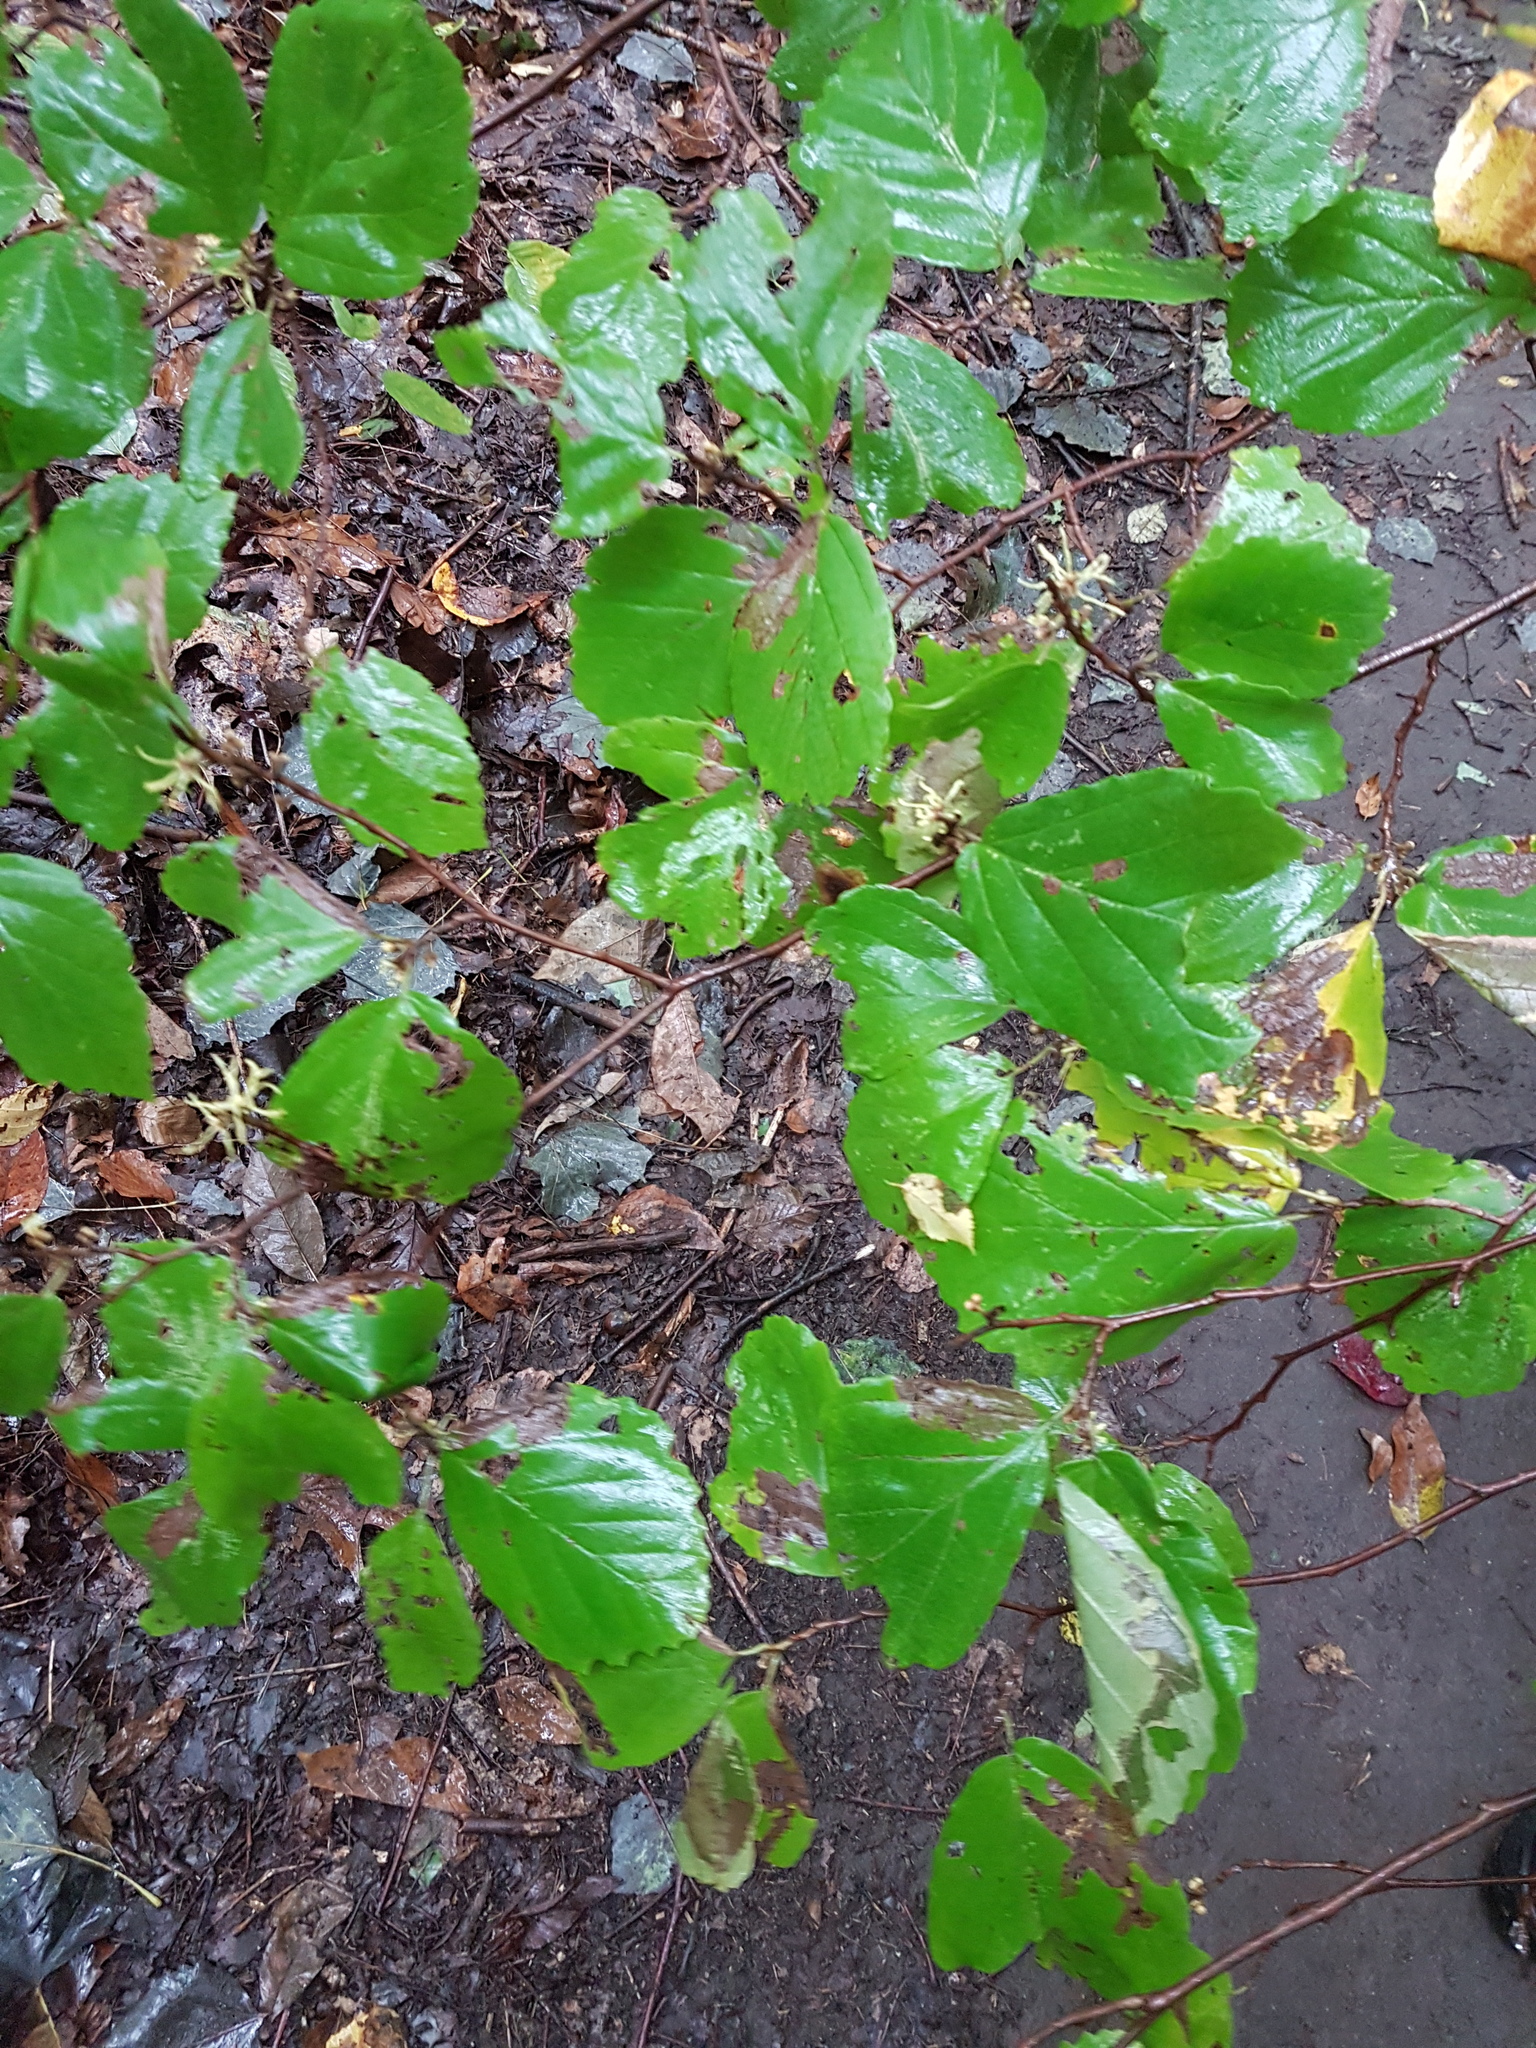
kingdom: Plantae
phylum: Tracheophyta
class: Magnoliopsida
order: Saxifragales
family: Hamamelidaceae
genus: Hamamelis
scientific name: Hamamelis virginiana
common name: Witch-hazel
